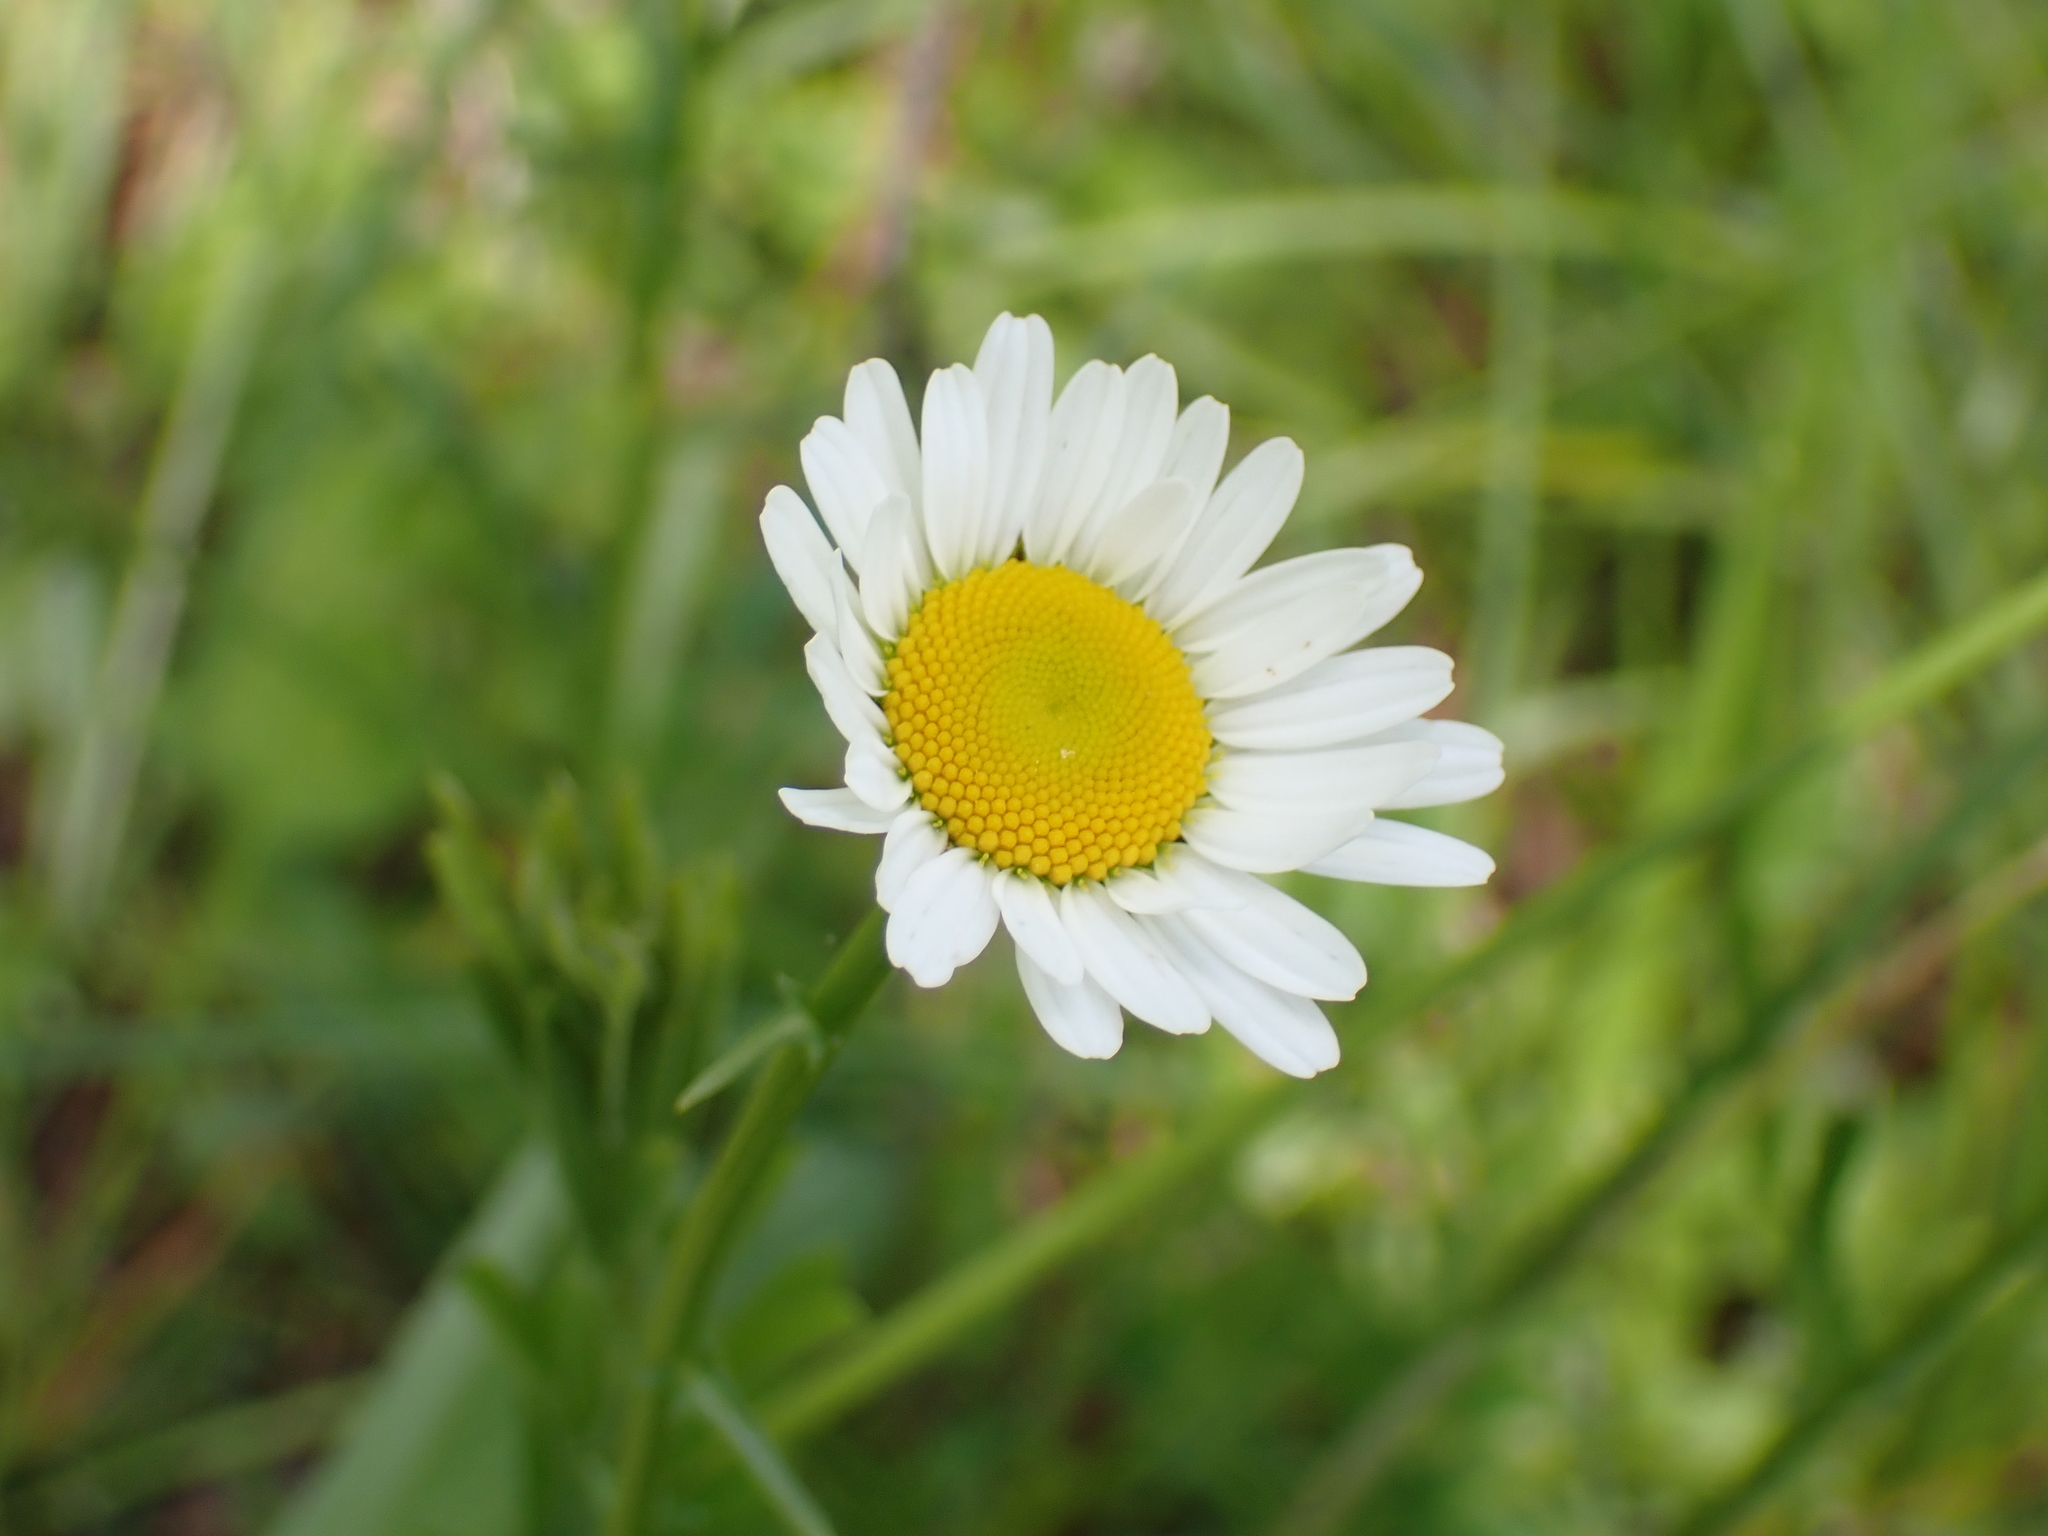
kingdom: Plantae
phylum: Tracheophyta
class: Magnoliopsida
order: Asterales
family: Asteraceae
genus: Leucanthemum
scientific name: Leucanthemum vulgare
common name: Oxeye daisy
